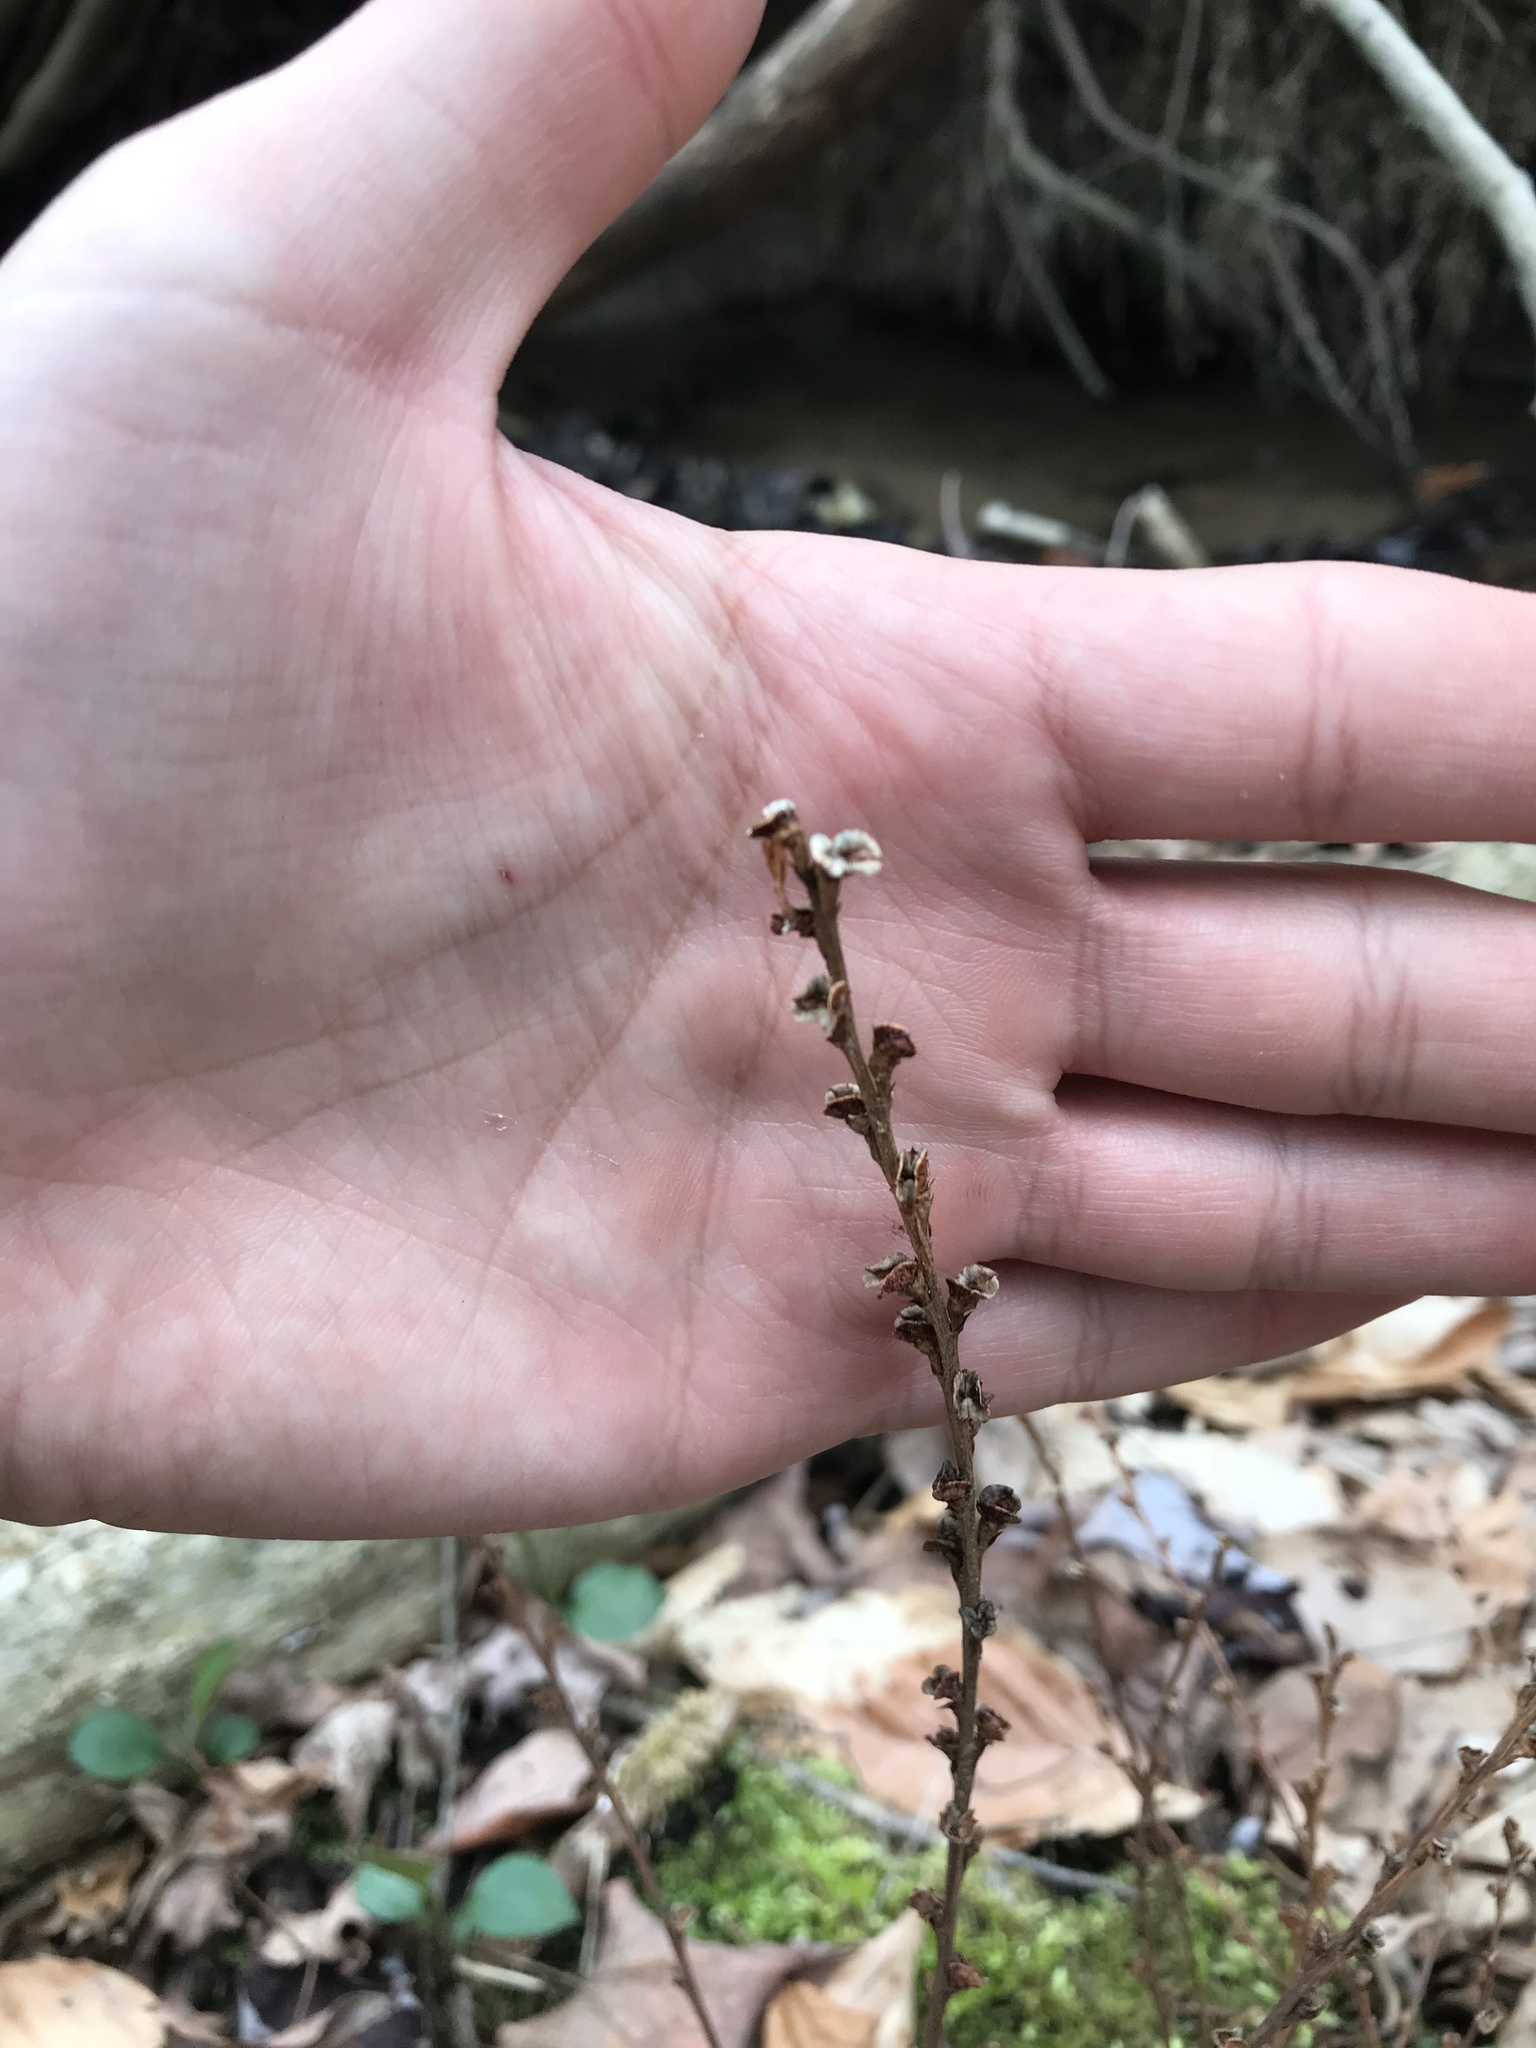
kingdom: Plantae
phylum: Tracheophyta
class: Magnoliopsida
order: Lamiales
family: Orobanchaceae
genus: Epifagus
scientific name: Epifagus virginiana
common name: Beechdrops
